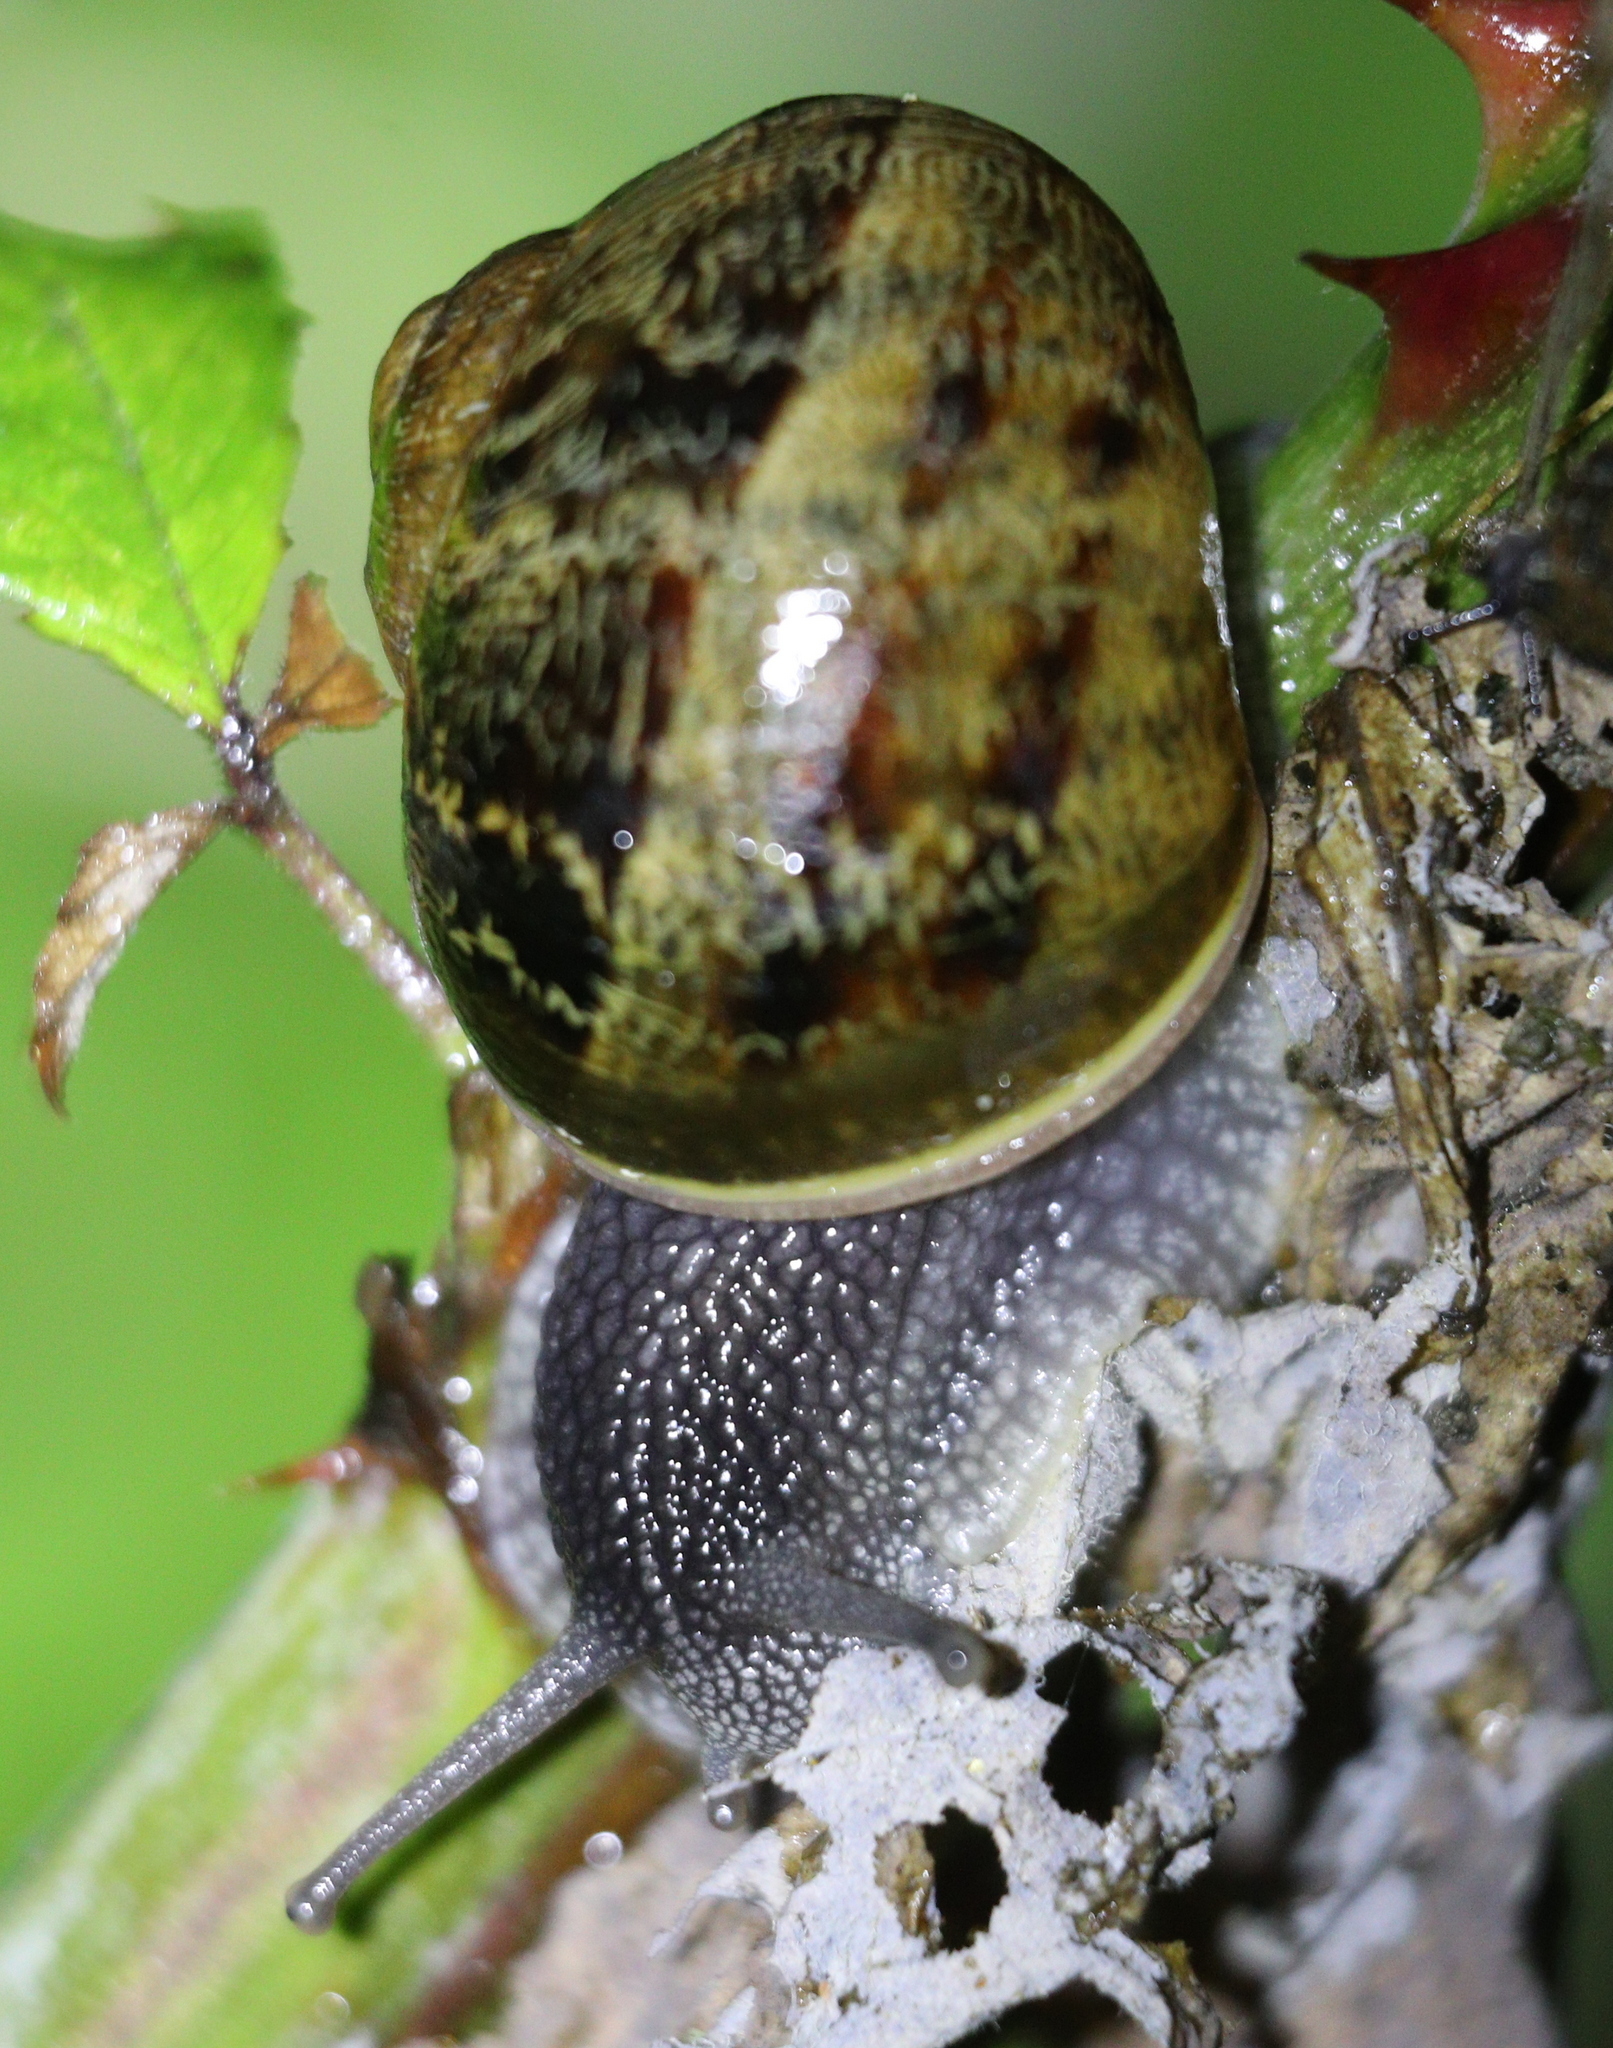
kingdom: Animalia
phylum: Mollusca
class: Gastropoda
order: Stylommatophora
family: Helicidae
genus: Cornu
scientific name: Cornu aspersum
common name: Brown garden snail
